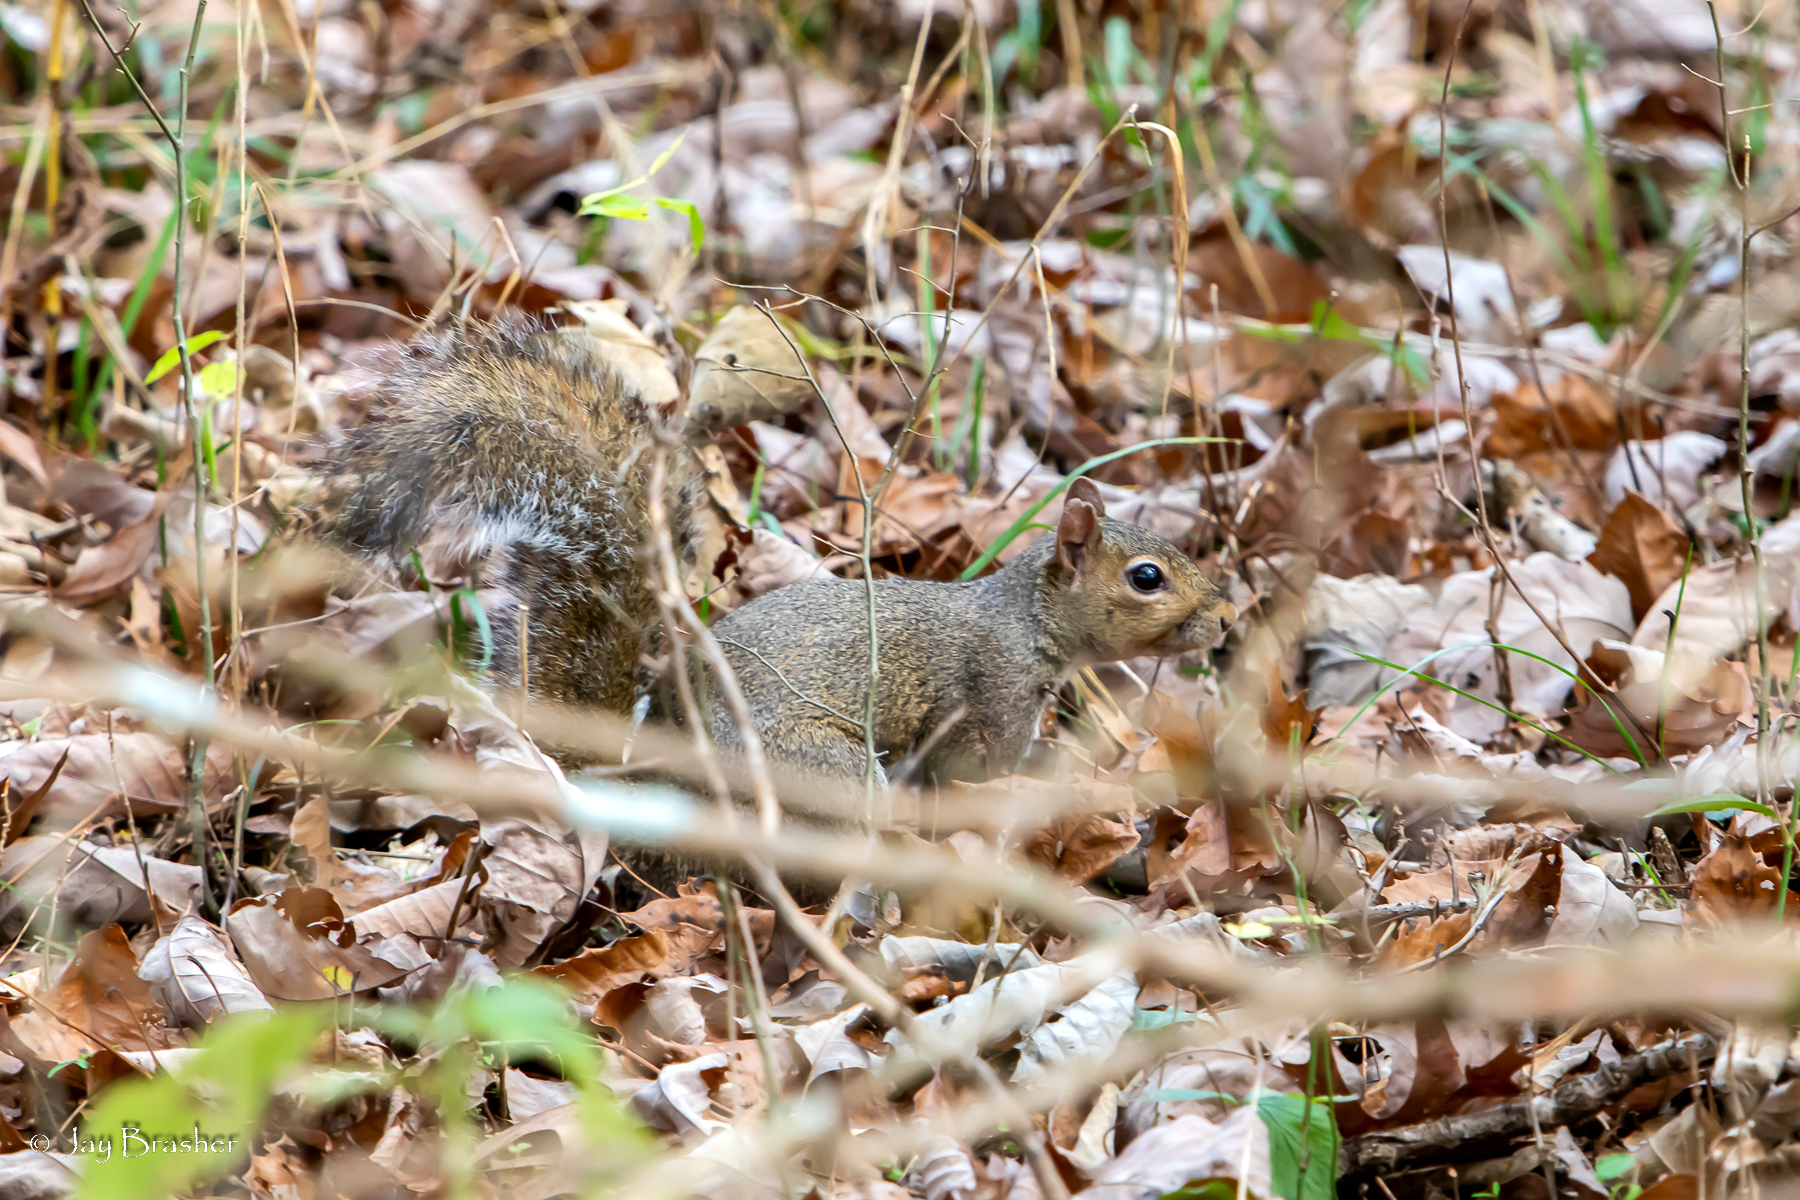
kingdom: Animalia
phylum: Chordata
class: Mammalia
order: Rodentia
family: Sciuridae
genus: Sciurus
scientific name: Sciurus carolinensis
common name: Eastern gray squirrel
